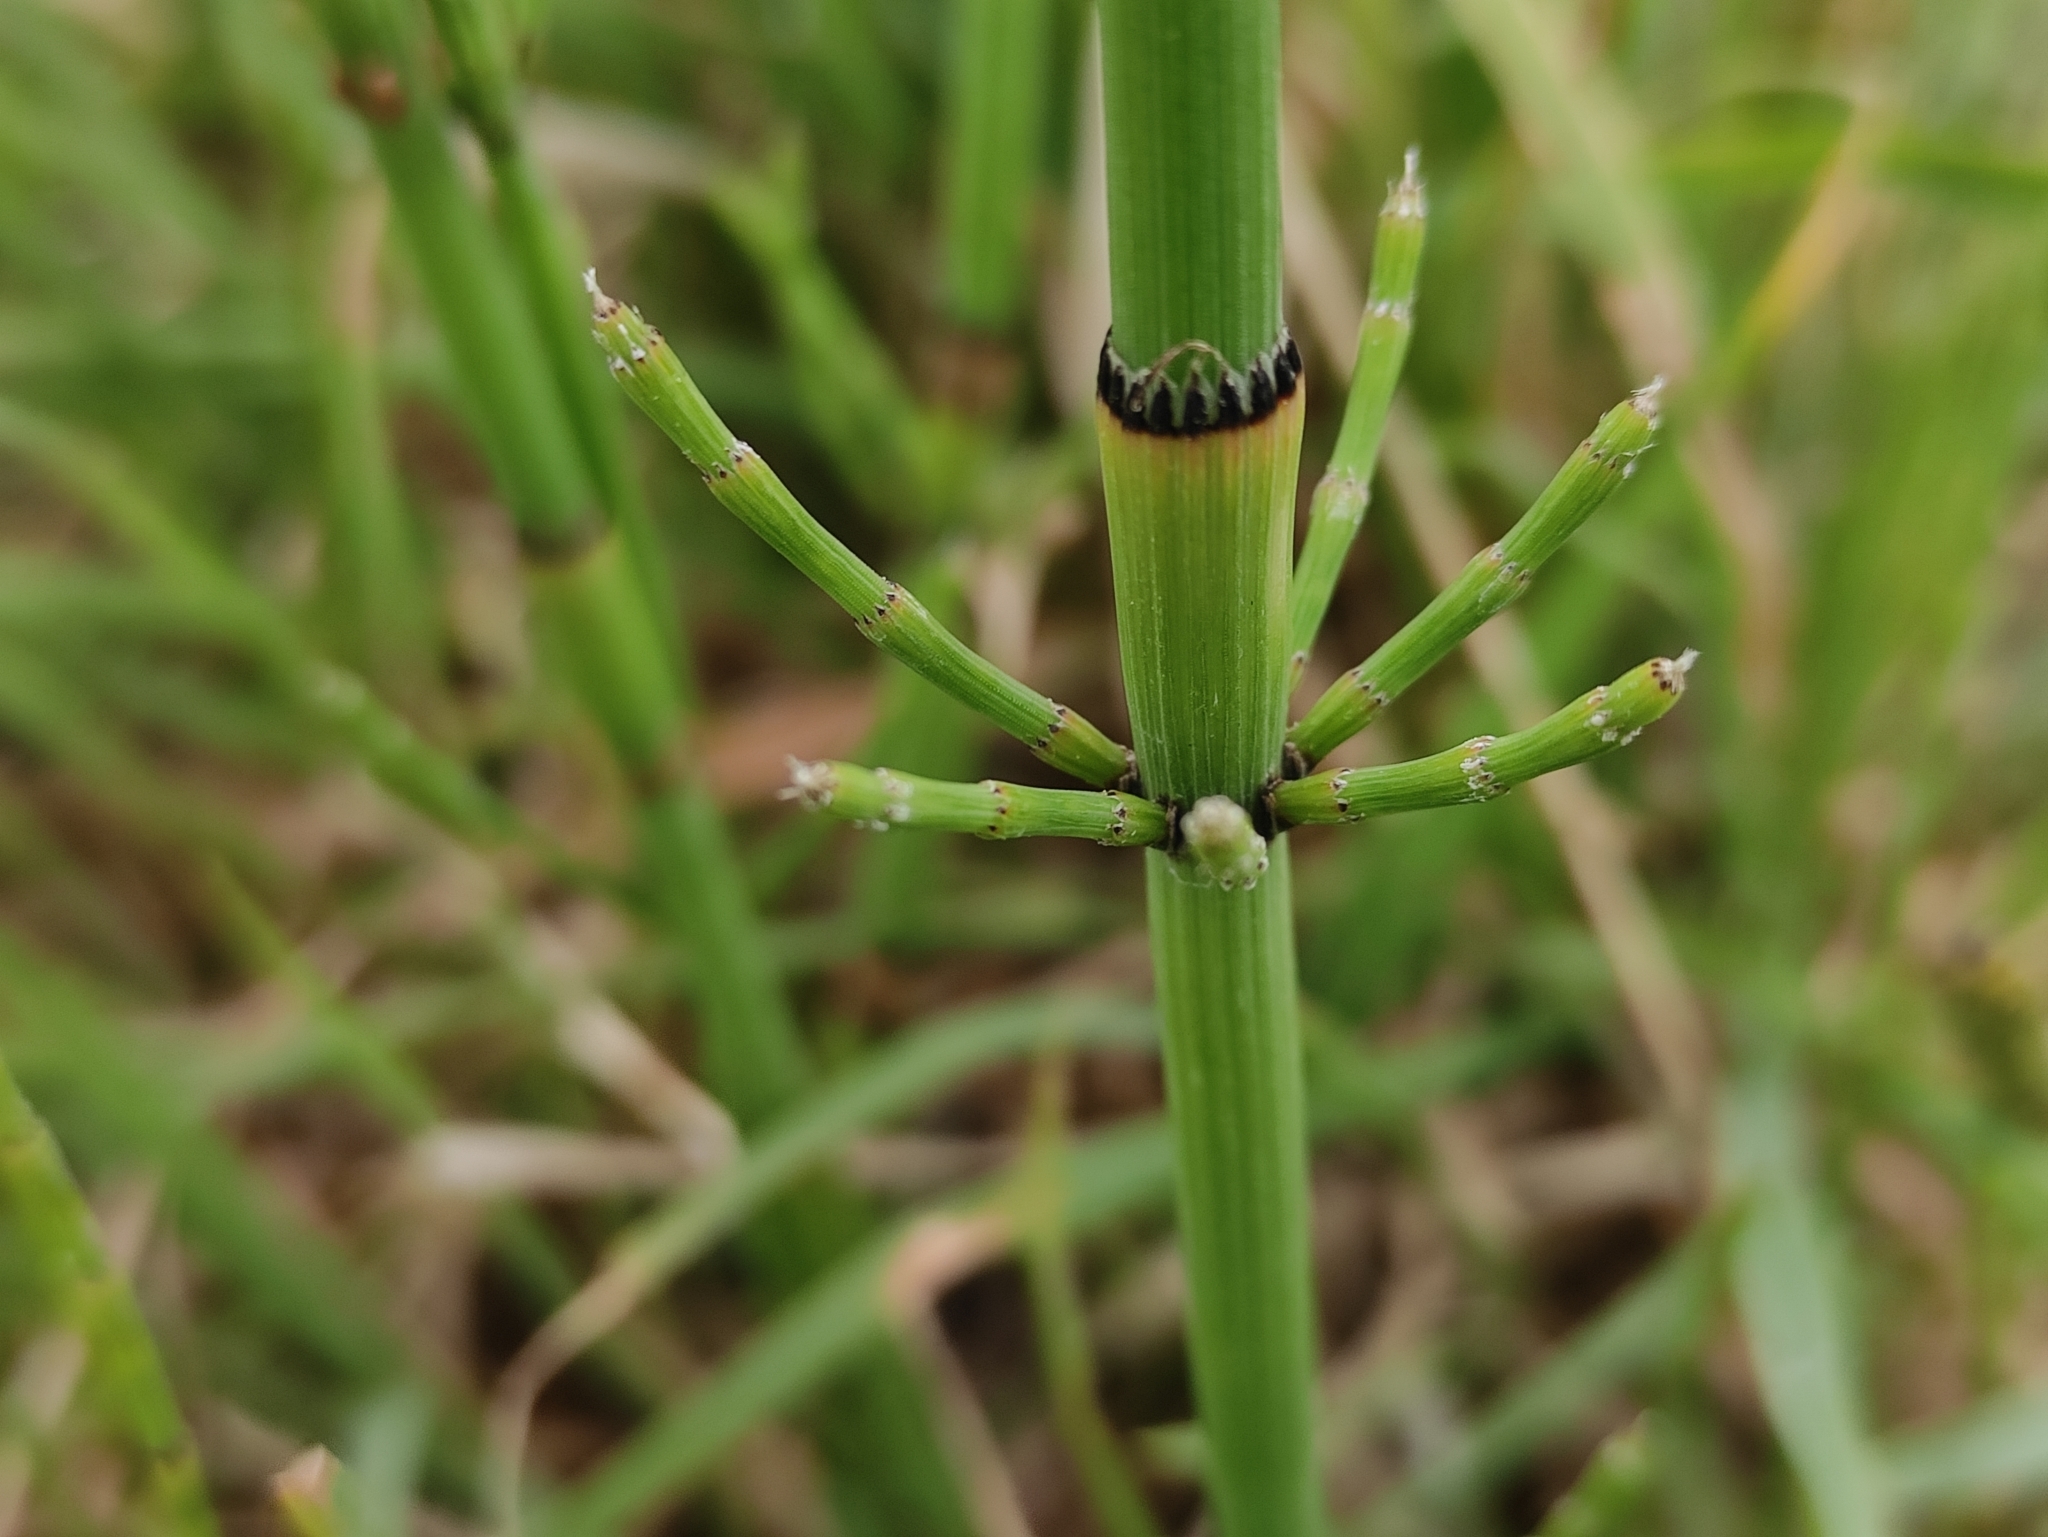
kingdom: Plantae
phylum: Tracheophyta
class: Polypodiopsida
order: Equisetales
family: Equisetaceae
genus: Equisetum
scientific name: Equisetum ramosissimum
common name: Branched horsetail
